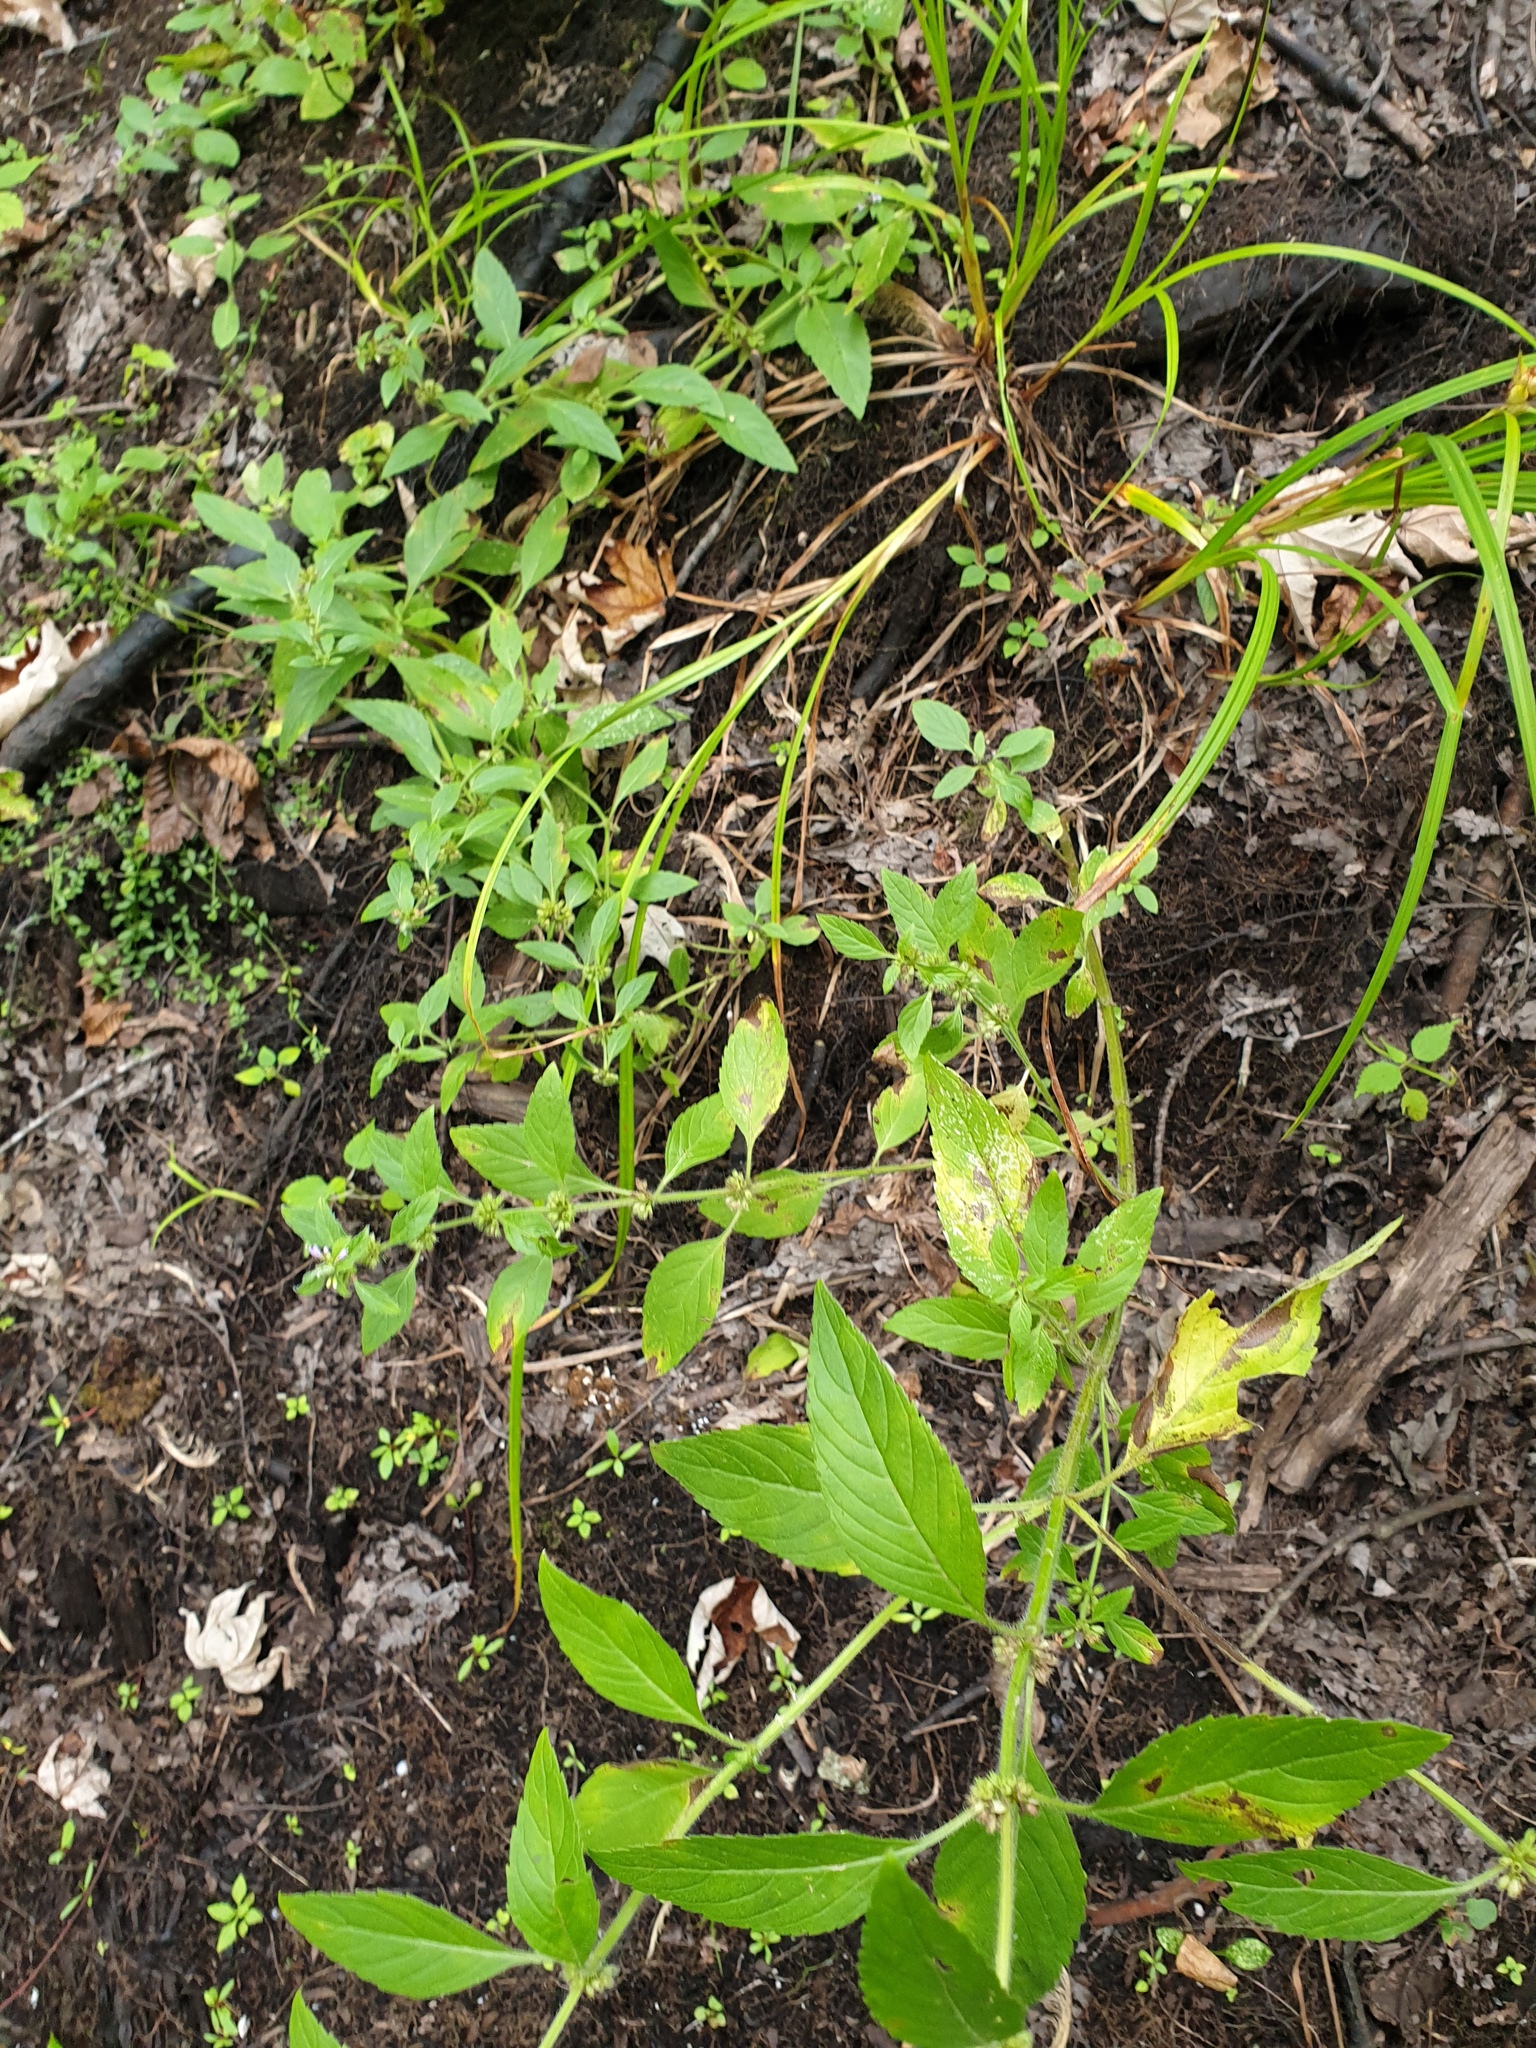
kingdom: Plantae
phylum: Tracheophyta
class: Magnoliopsida
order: Lamiales
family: Lamiaceae
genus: Mentha
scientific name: Mentha canadensis
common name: American corn mint
